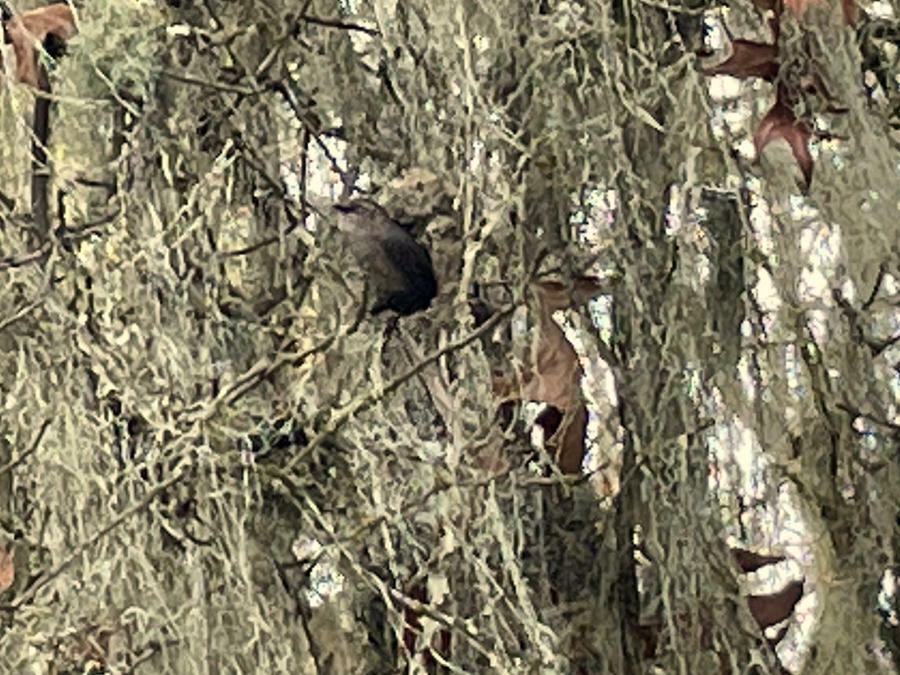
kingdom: Animalia
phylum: Chordata
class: Aves
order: Passeriformes
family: Aegithalidae
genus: Psaltriparus
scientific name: Psaltriparus minimus
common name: American bushtit
